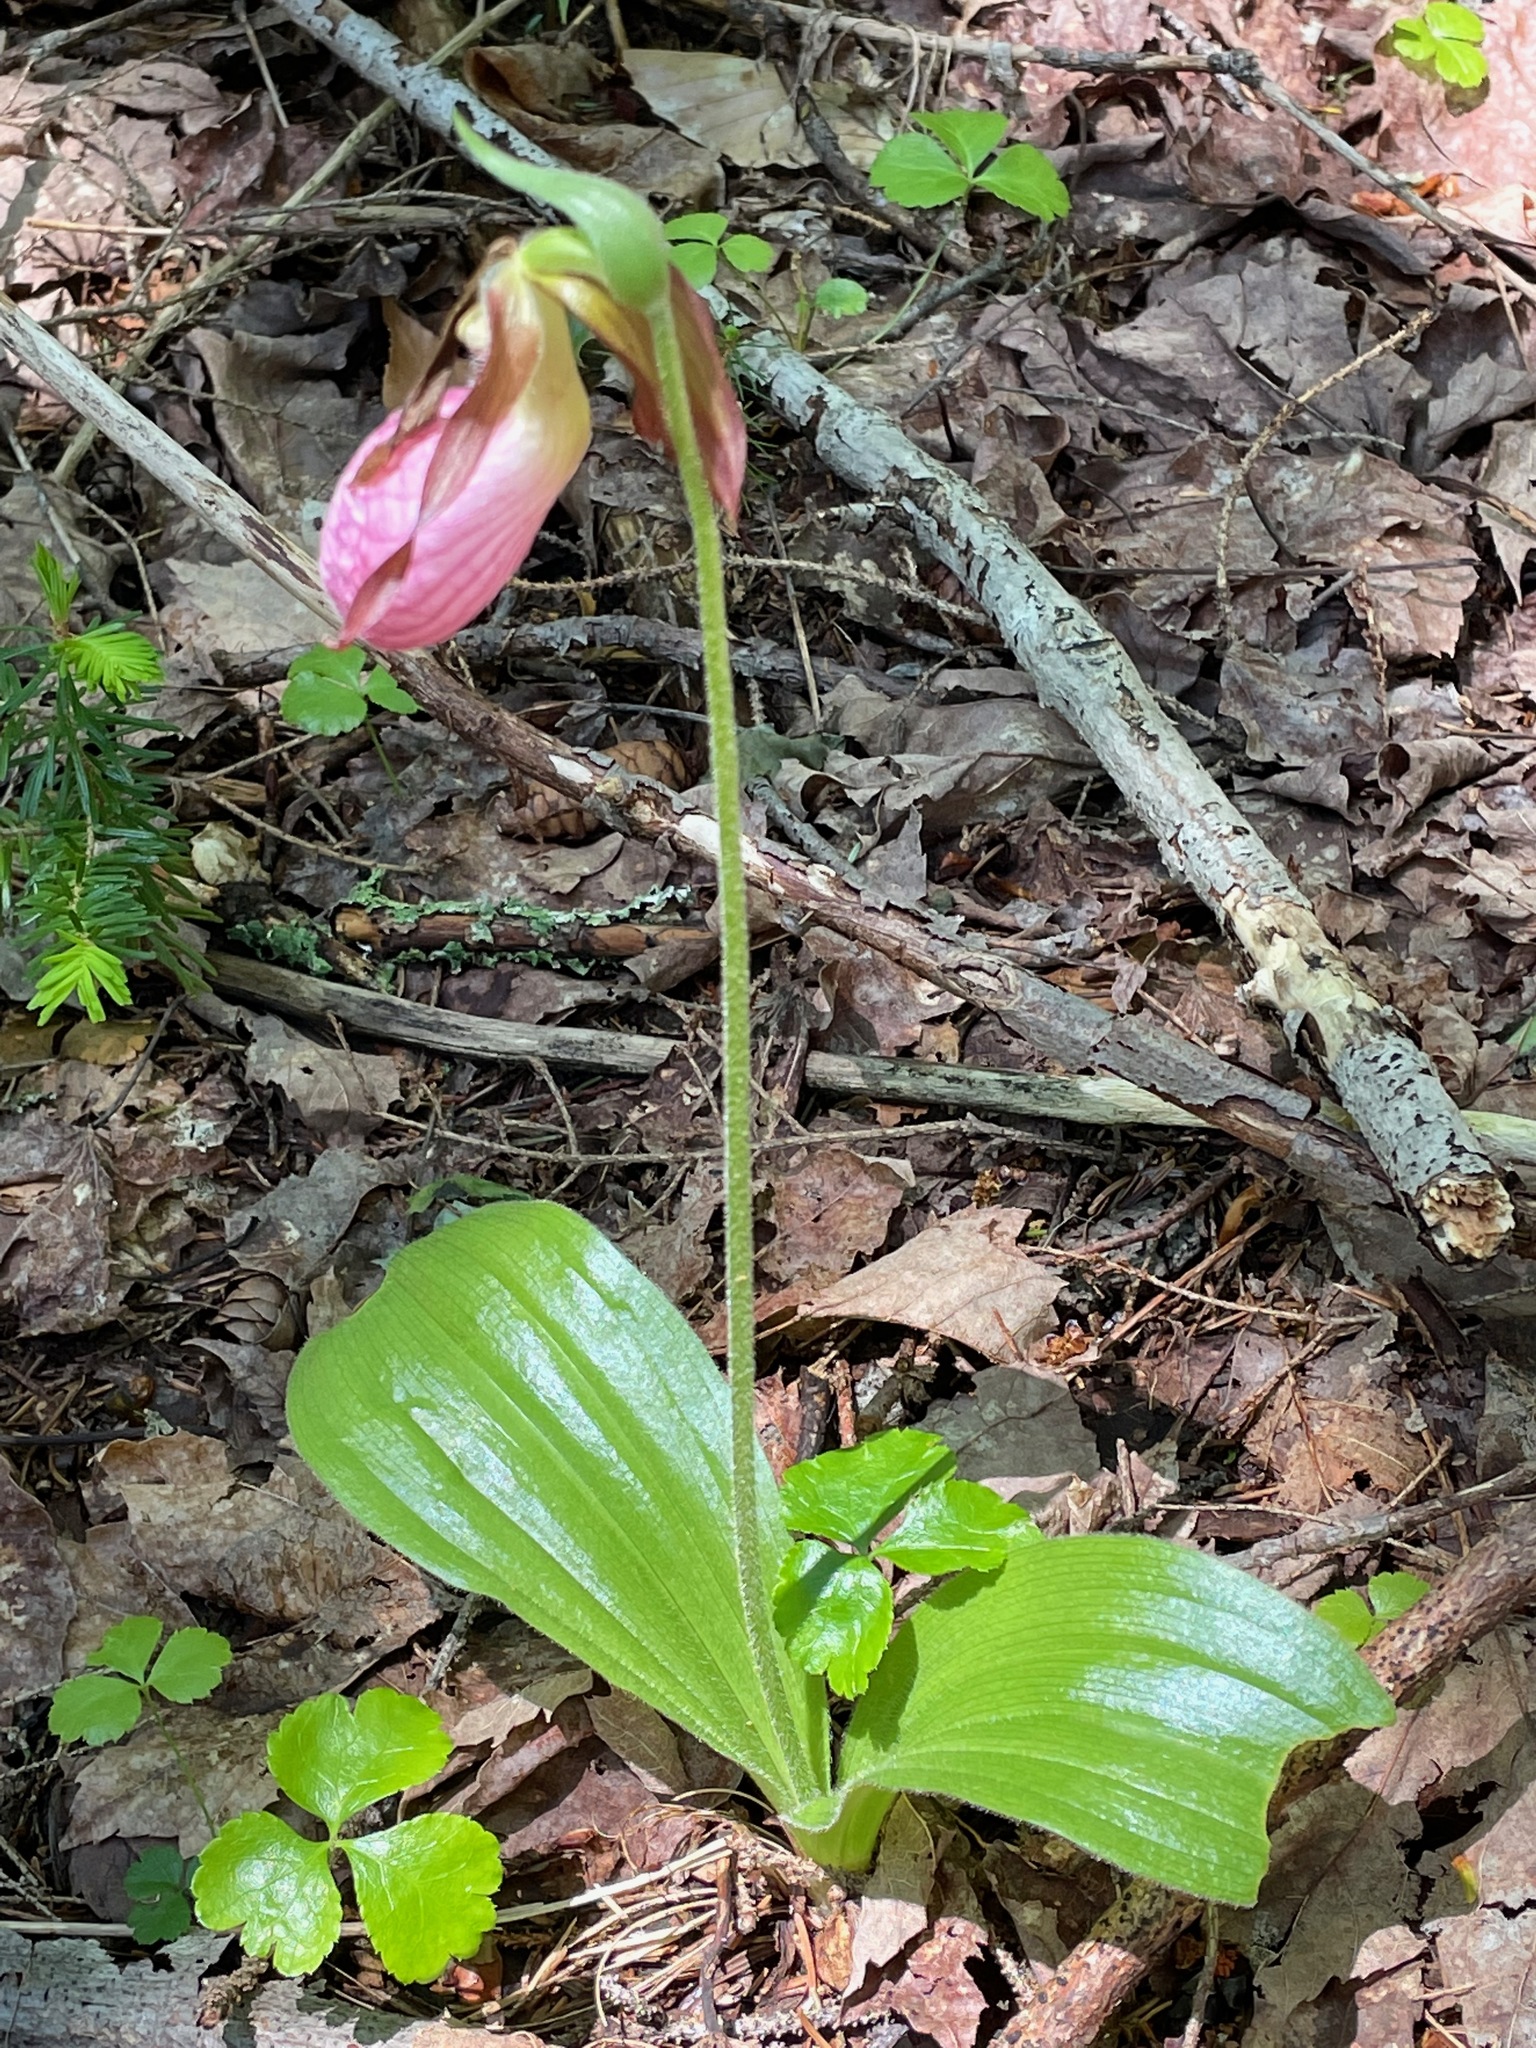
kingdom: Plantae
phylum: Tracheophyta
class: Liliopsida
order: Asparagales
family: Orchidaceae
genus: Cypripedium
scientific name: Cypripedium acaule
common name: Pink lady's-slipper
